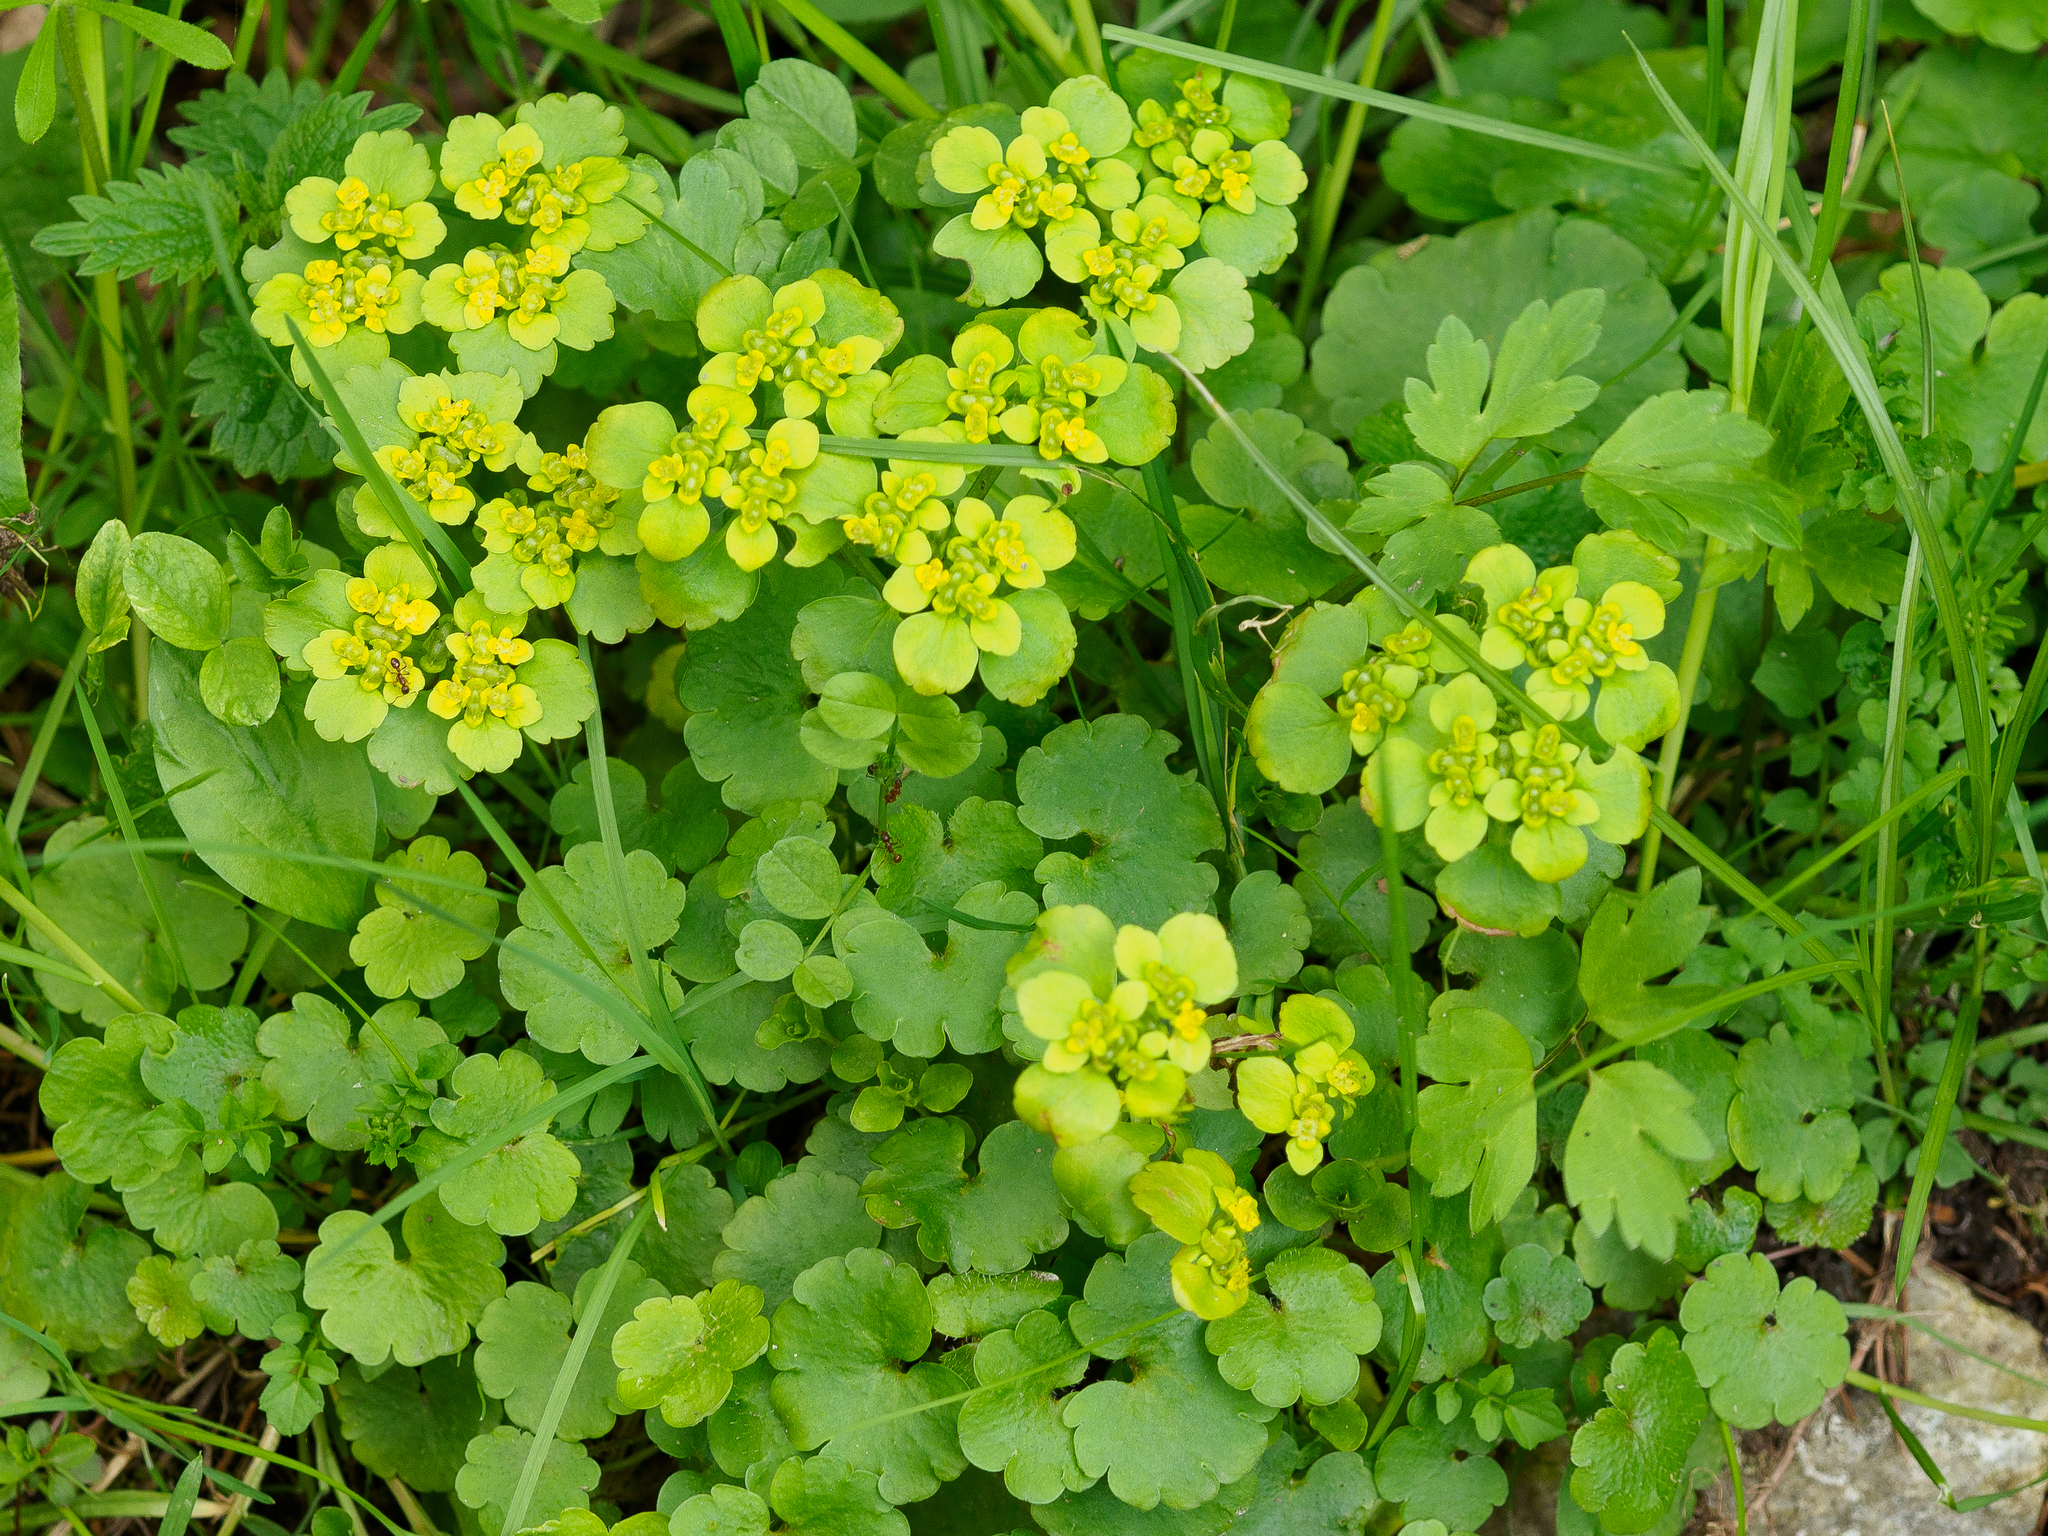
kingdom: Plantae
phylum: Tracheophyta
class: Magnoliopsida
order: Saxifragales
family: Saxifragaceae
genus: Chrysosplenium
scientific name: Chrysosplenium alternifolium
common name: Alternate-leaved golden-saxifrage
